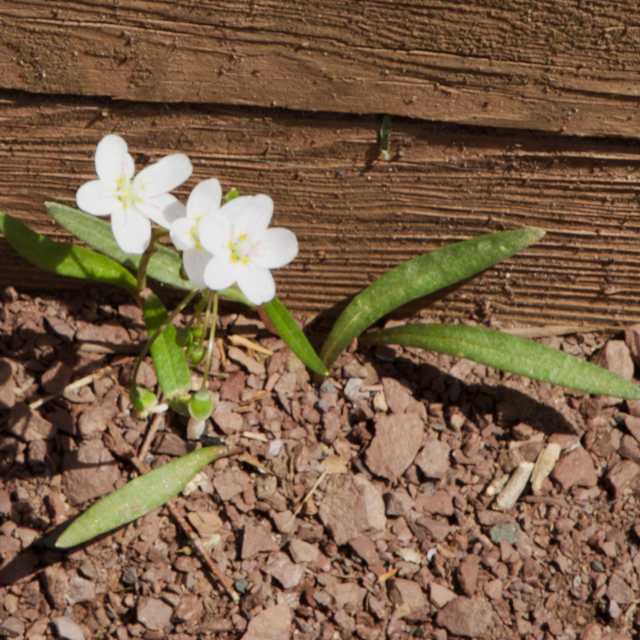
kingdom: Plantae
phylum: Tracheophyta
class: Magnoliopsida
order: Caryophyllales
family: Montiaceae
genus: Claytonia
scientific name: Claytonia virginica
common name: Virginia springbeauty
